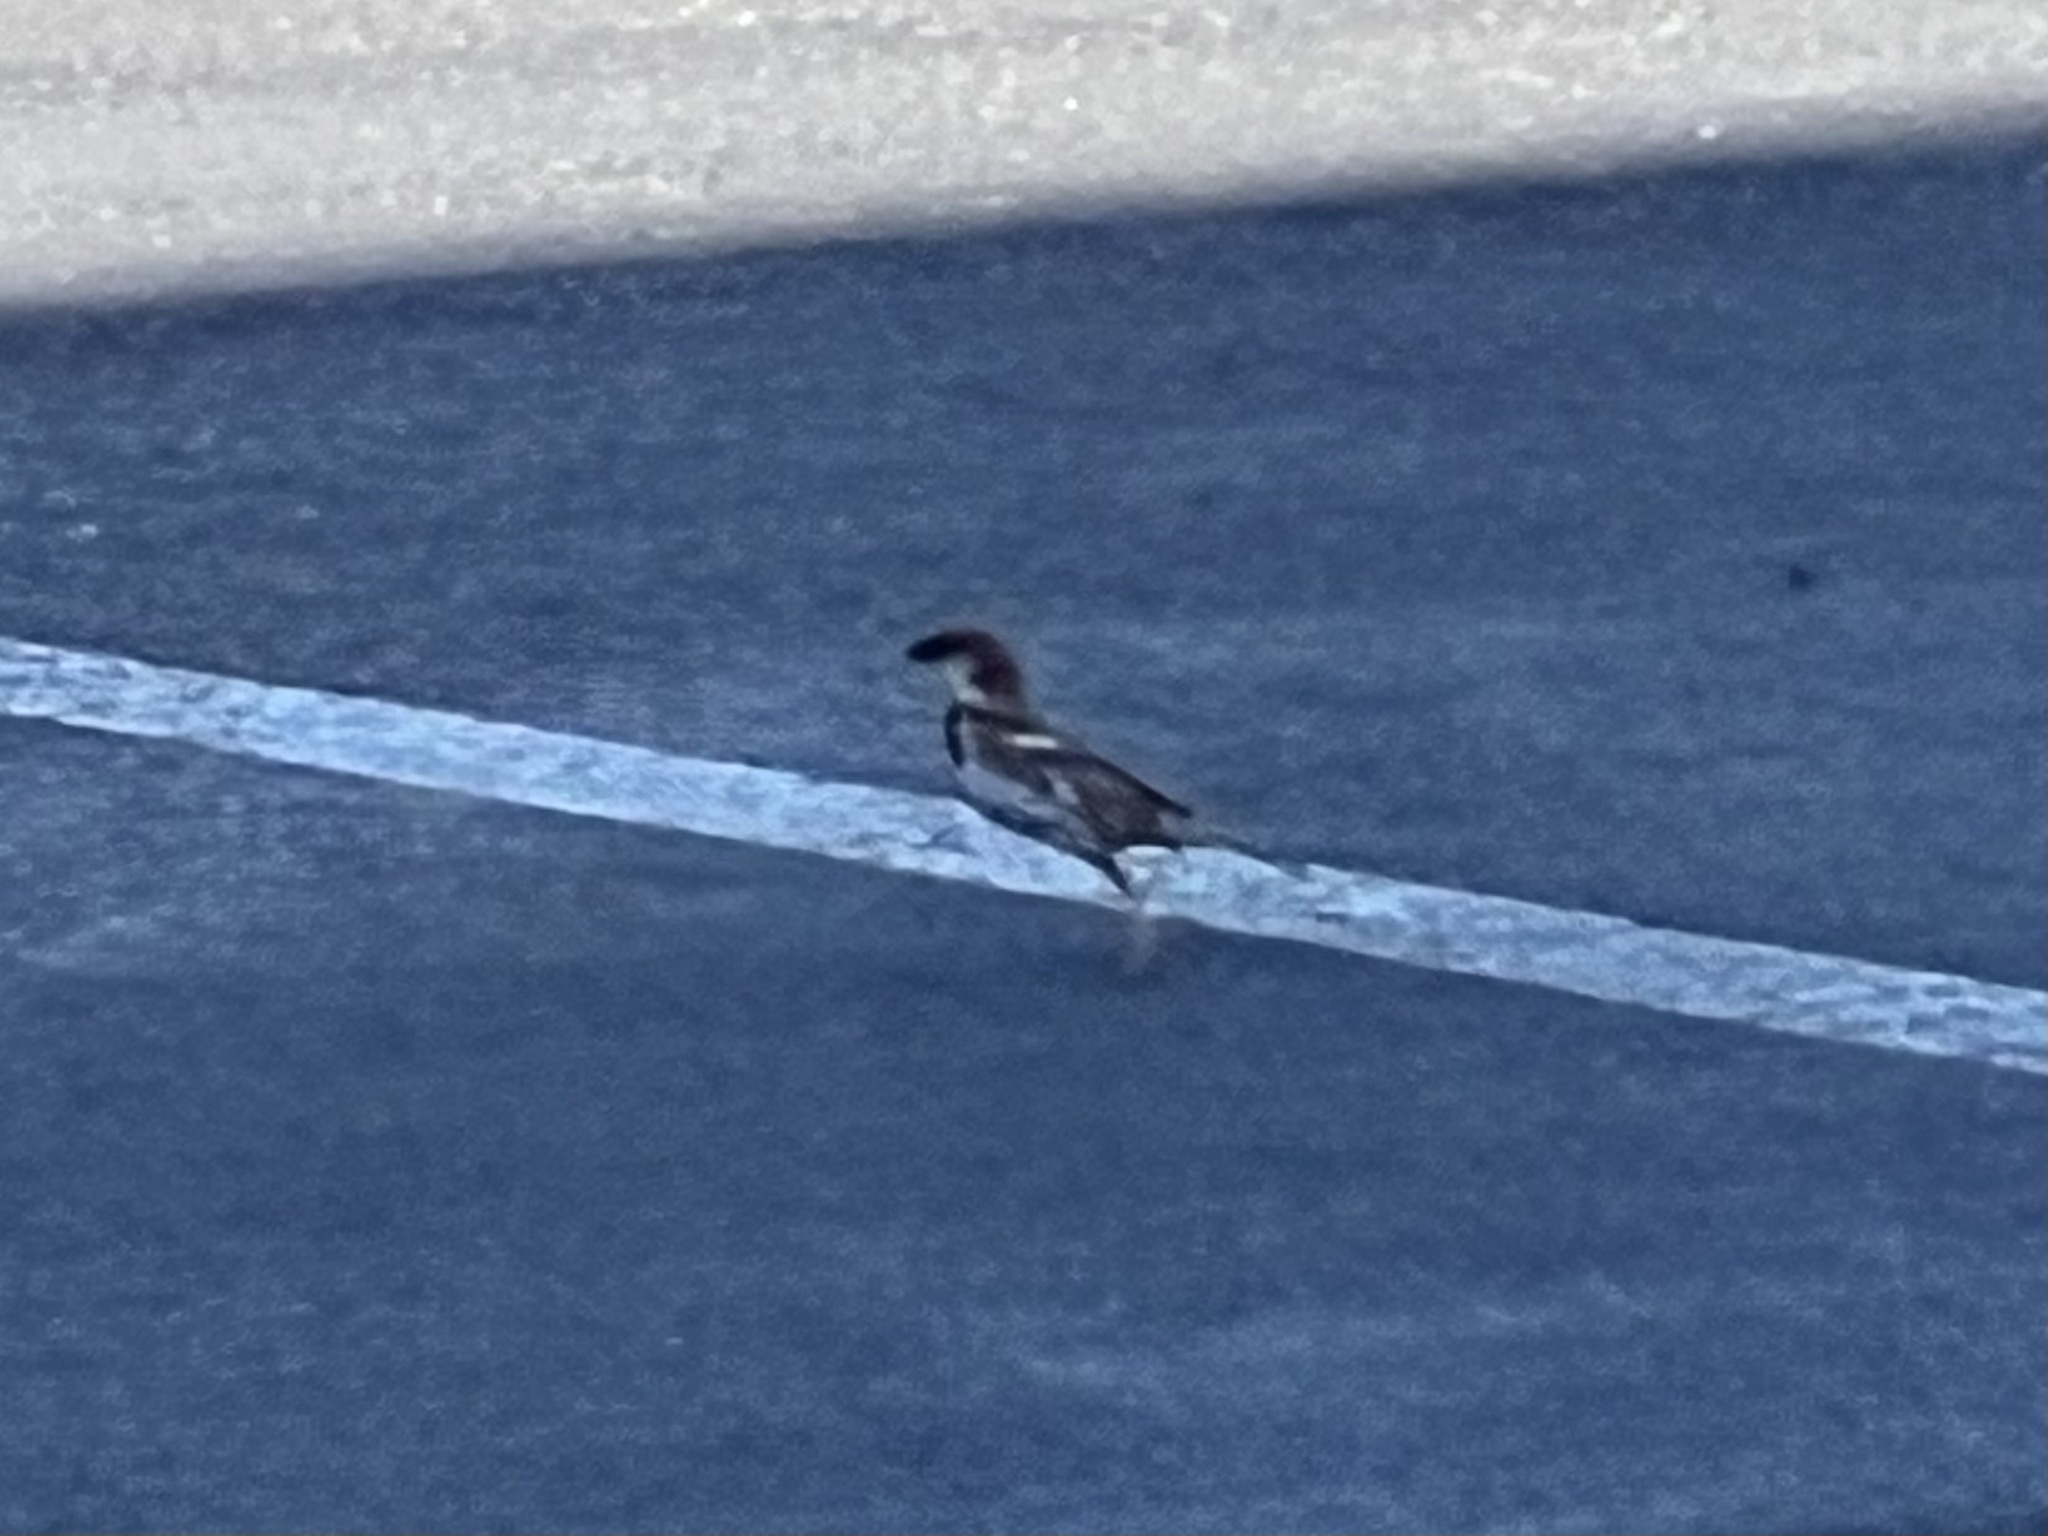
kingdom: Animalia
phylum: Chordata
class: Aves
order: Passeriformes
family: Passeridae
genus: Passer
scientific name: Passer domesticus
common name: House sparrow
